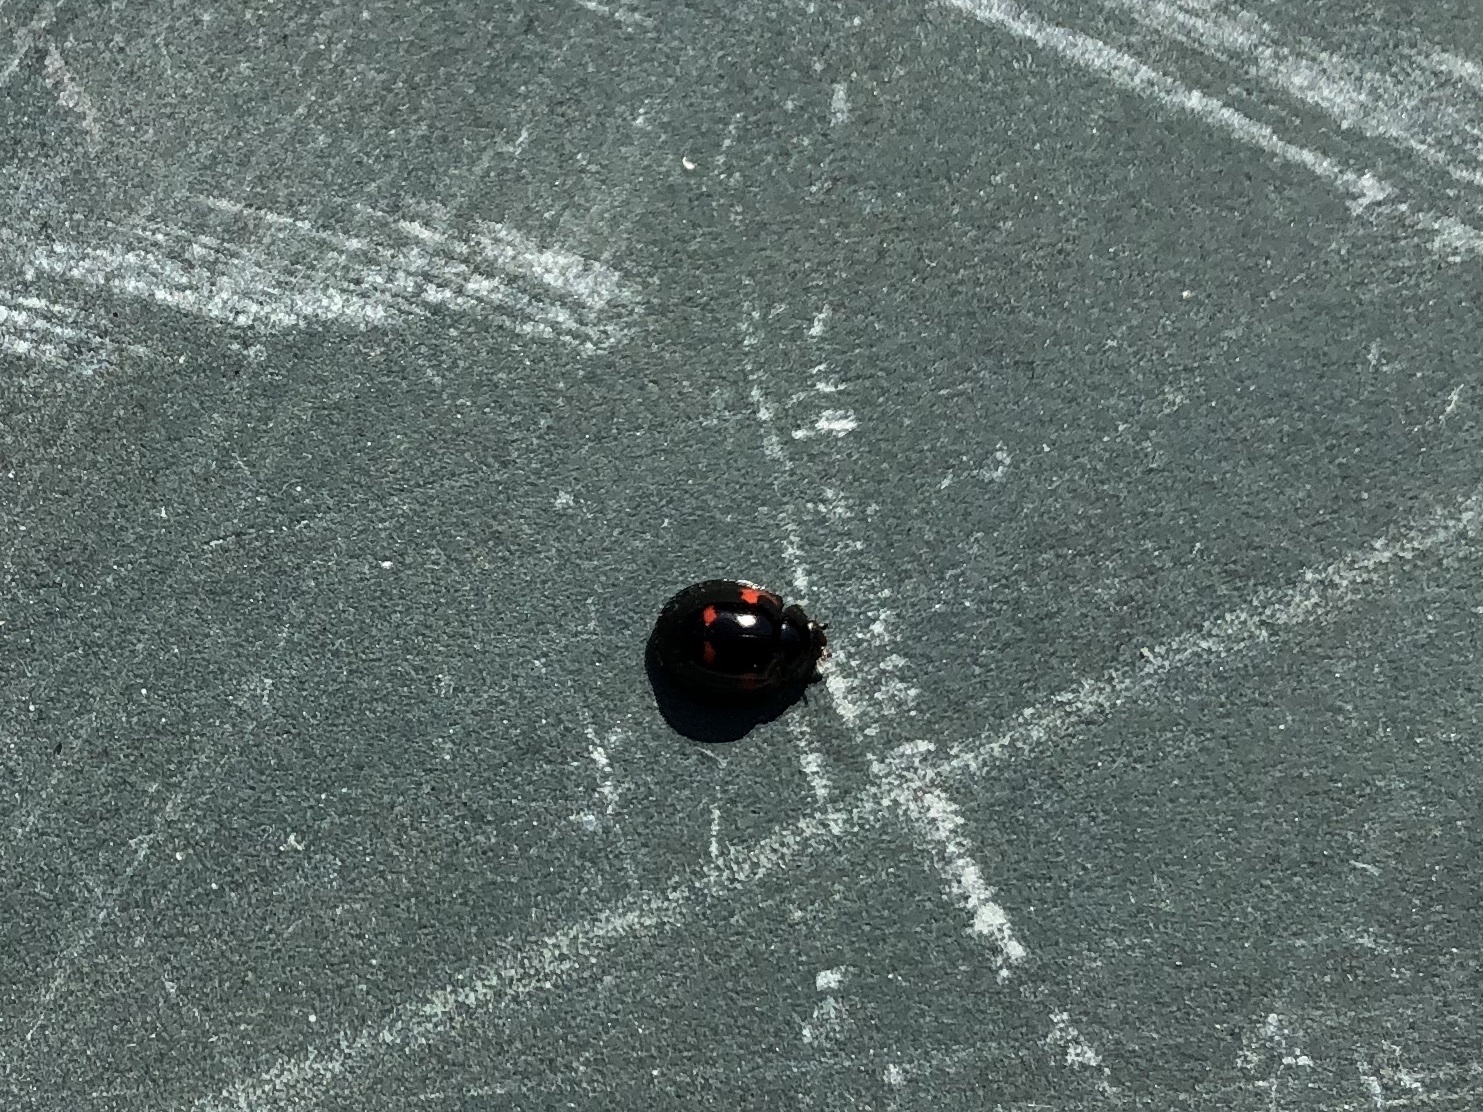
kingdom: Animalia
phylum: Arthropoda
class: Insecta
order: Coleoptera
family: Coccinellidae
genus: Brumus
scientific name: Brumus quadripustulatus
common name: Ladybird beetle
